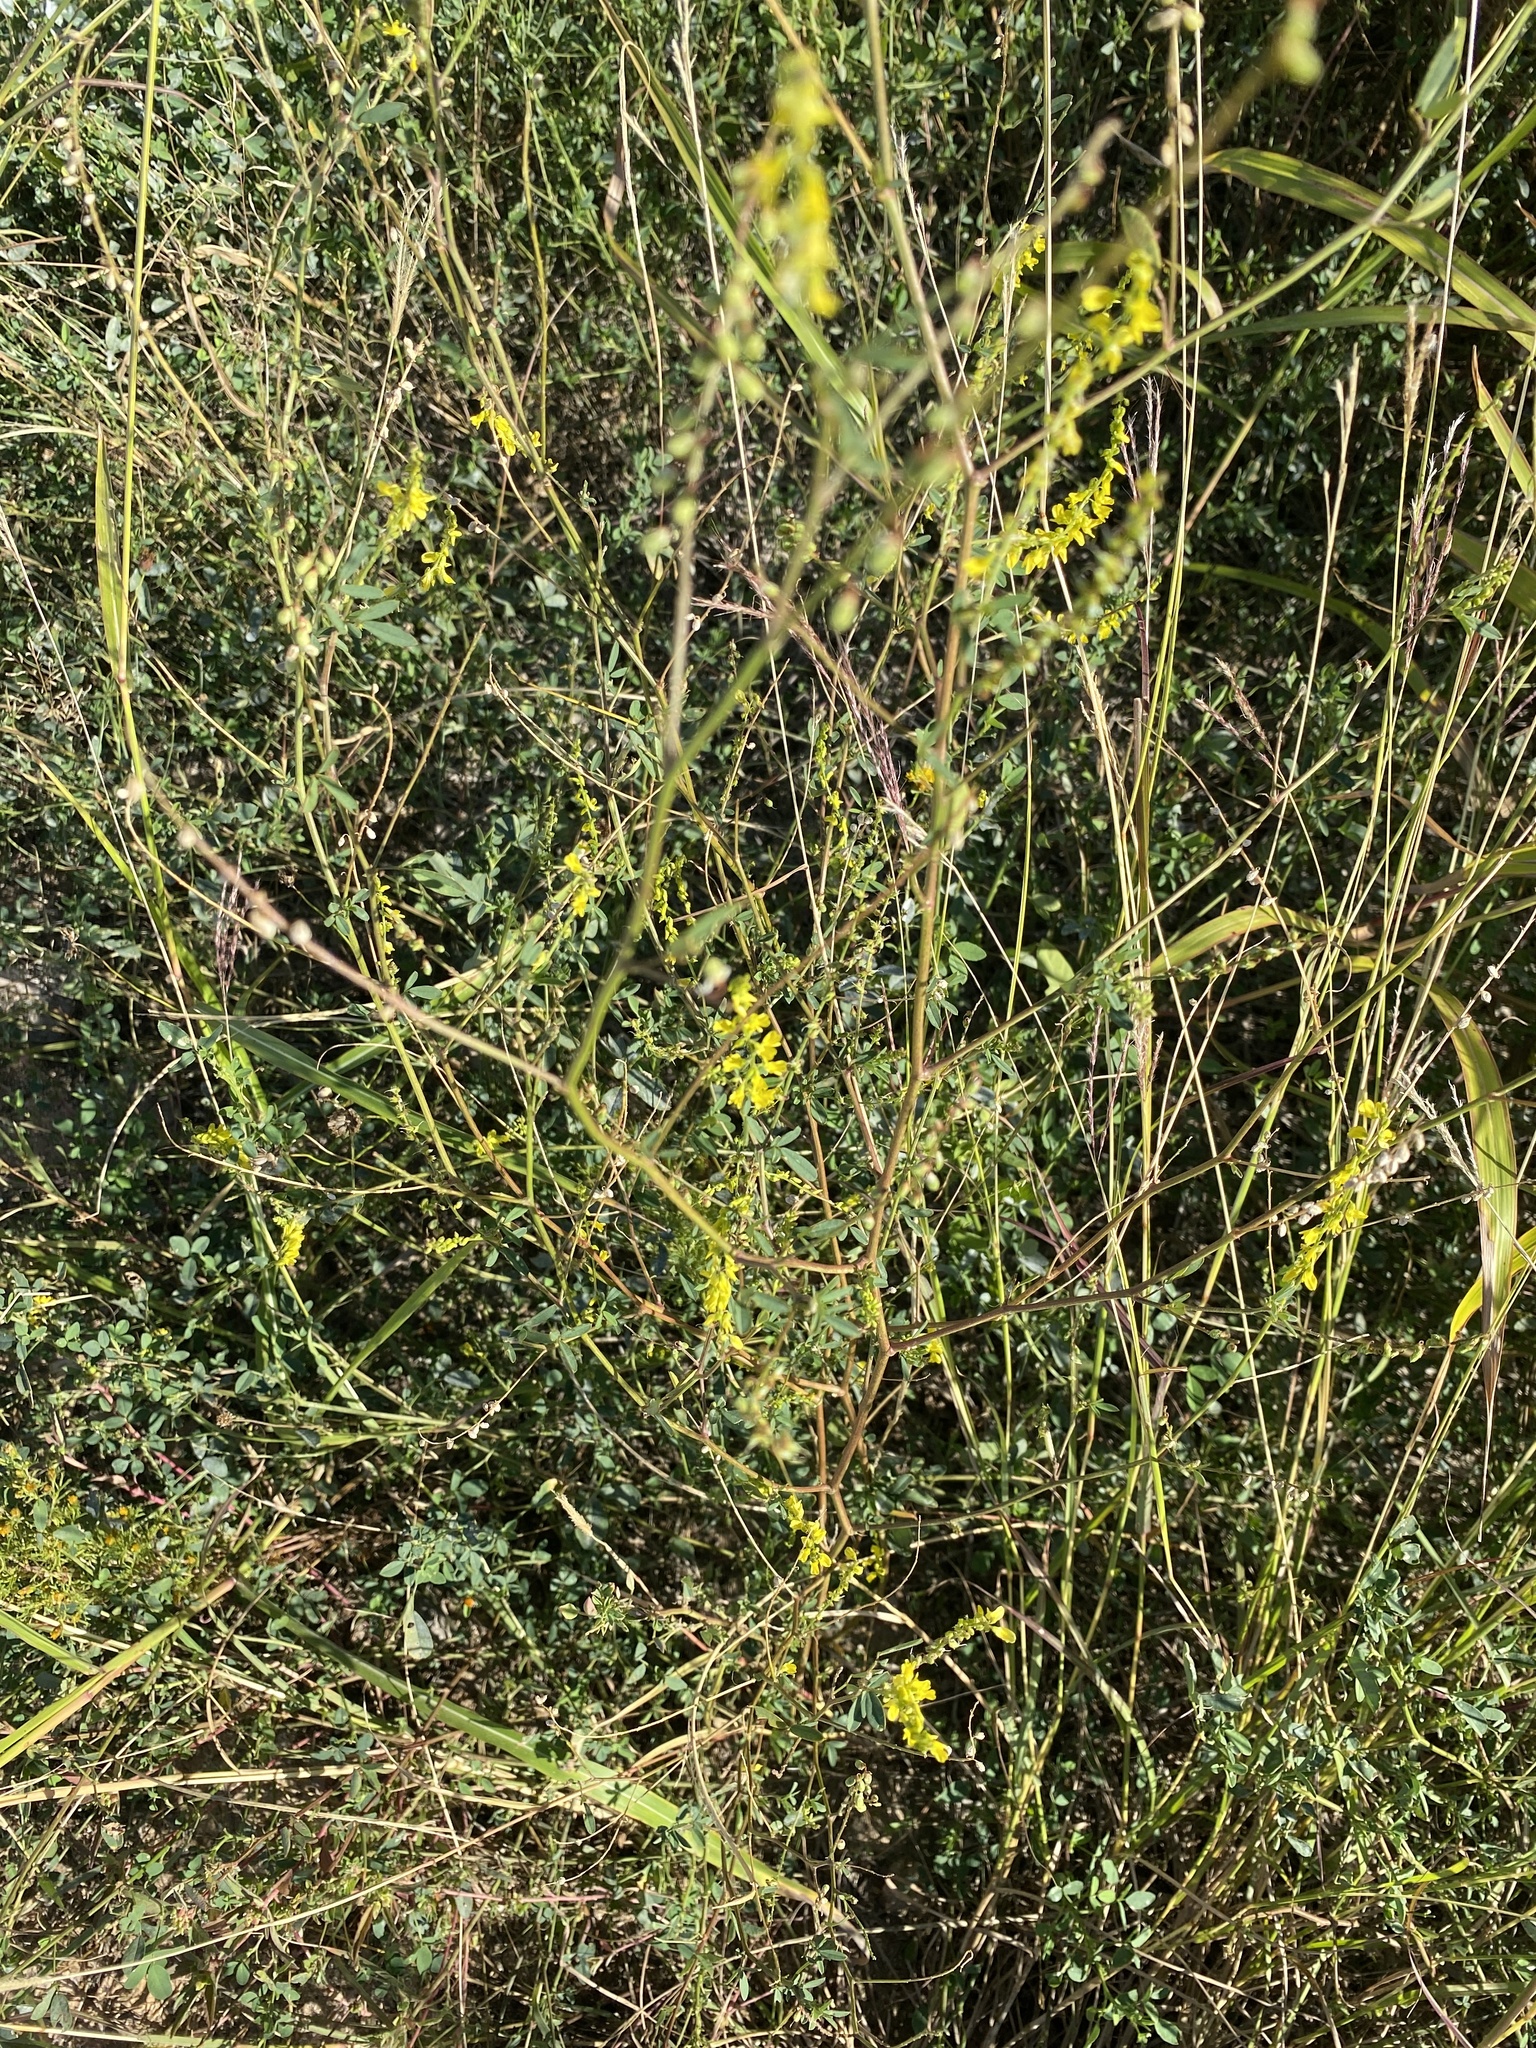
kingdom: Plantae
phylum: Tracheophyta
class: Magnoliopsida
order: Fabales
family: Fabaceae
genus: Melilotus
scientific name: Melilotus officinalis
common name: Sweetclover
